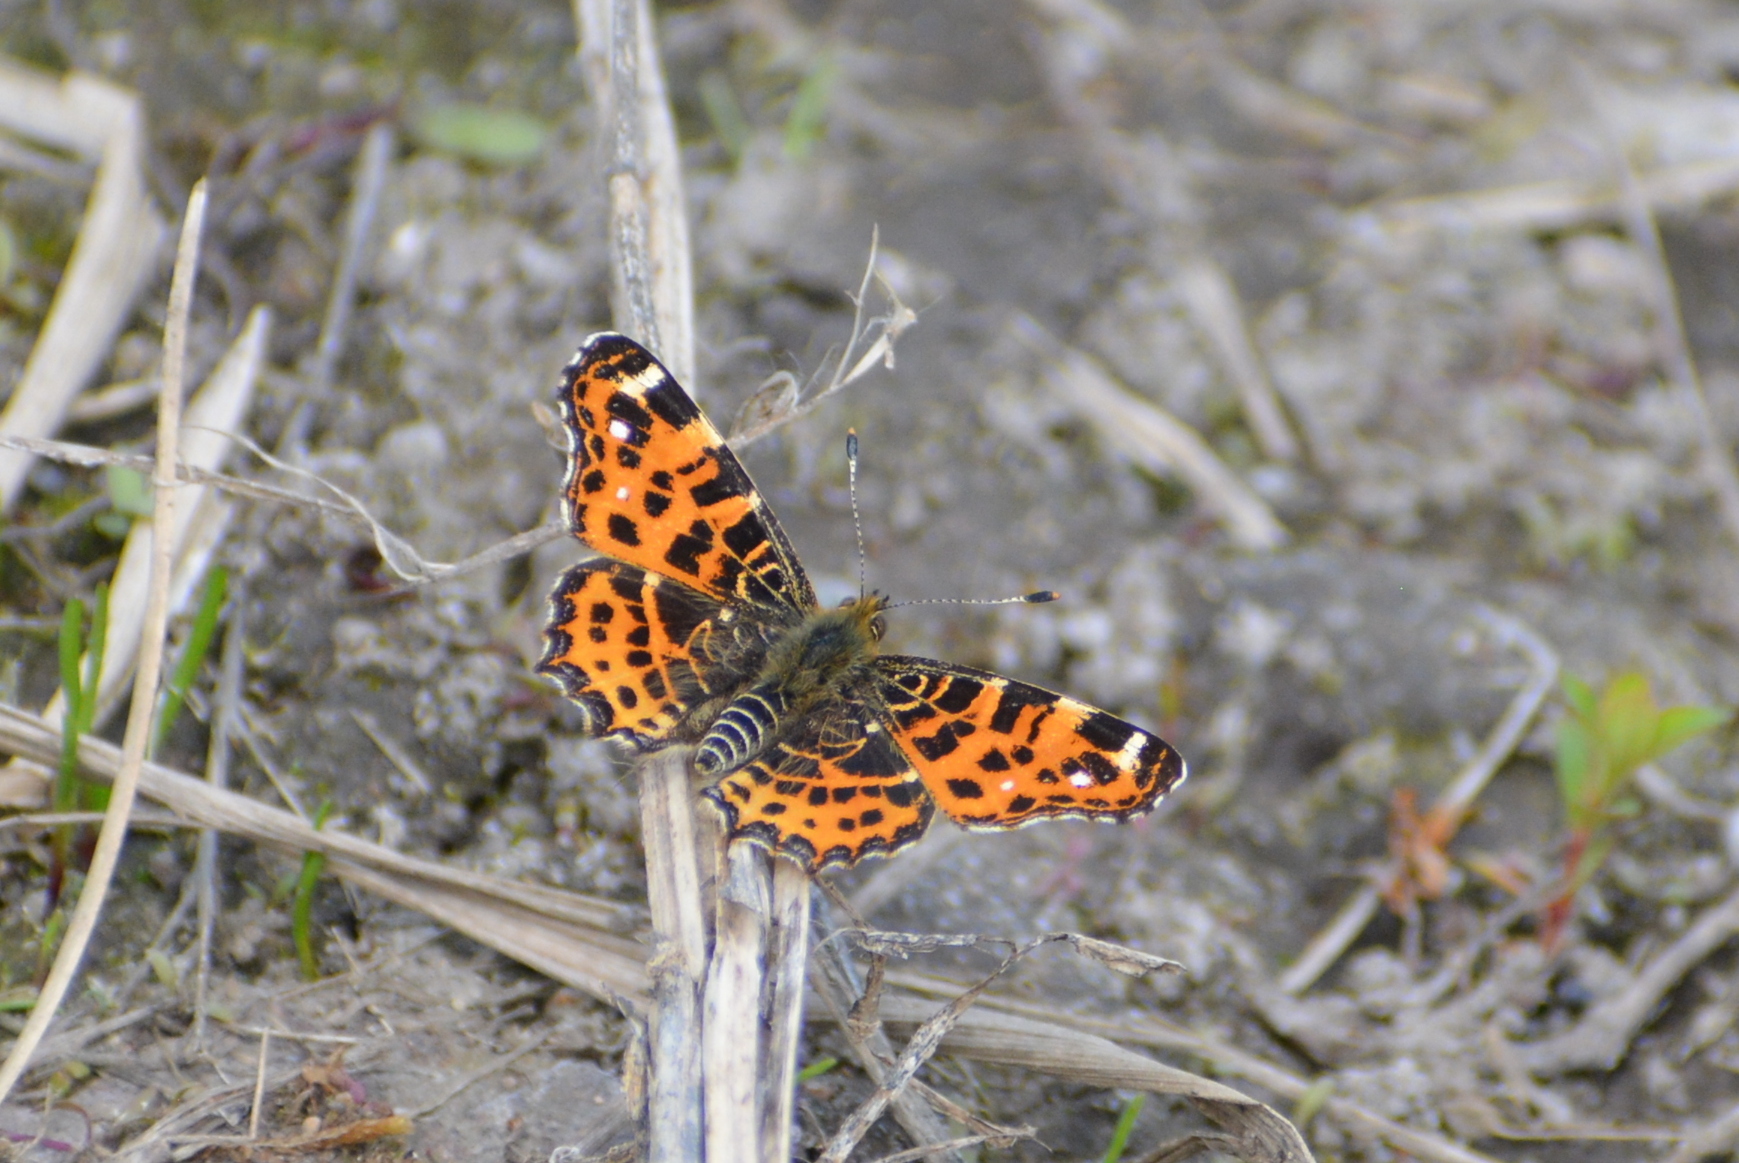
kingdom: Animalia
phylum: Arthropoda
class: Insecta
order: Lepidoptera
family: Nymphalidae
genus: Araschnia
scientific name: Araschnia levana
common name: Map butterfly
